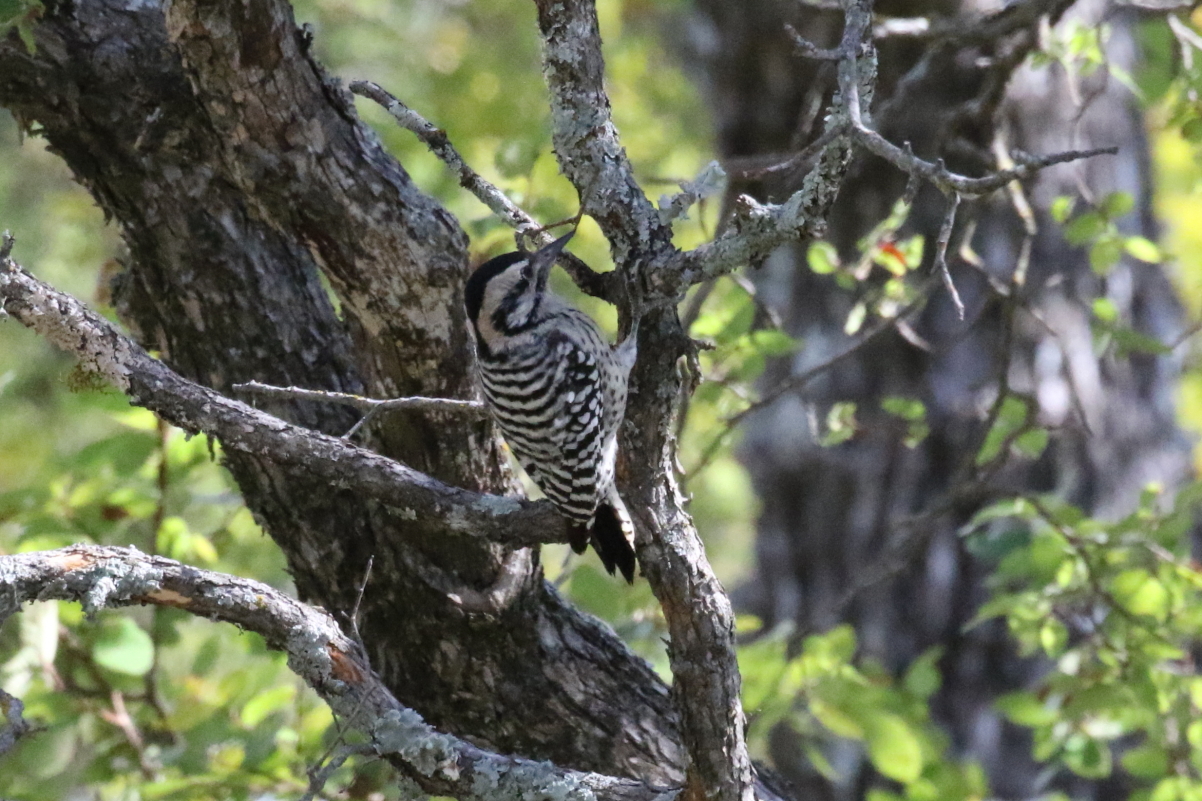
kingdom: Animalia
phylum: Chordata
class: Aves
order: Piciformes
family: Picidae
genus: Dryobates
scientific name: Dryobates scalaris
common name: Ladder-backed woodpecker
